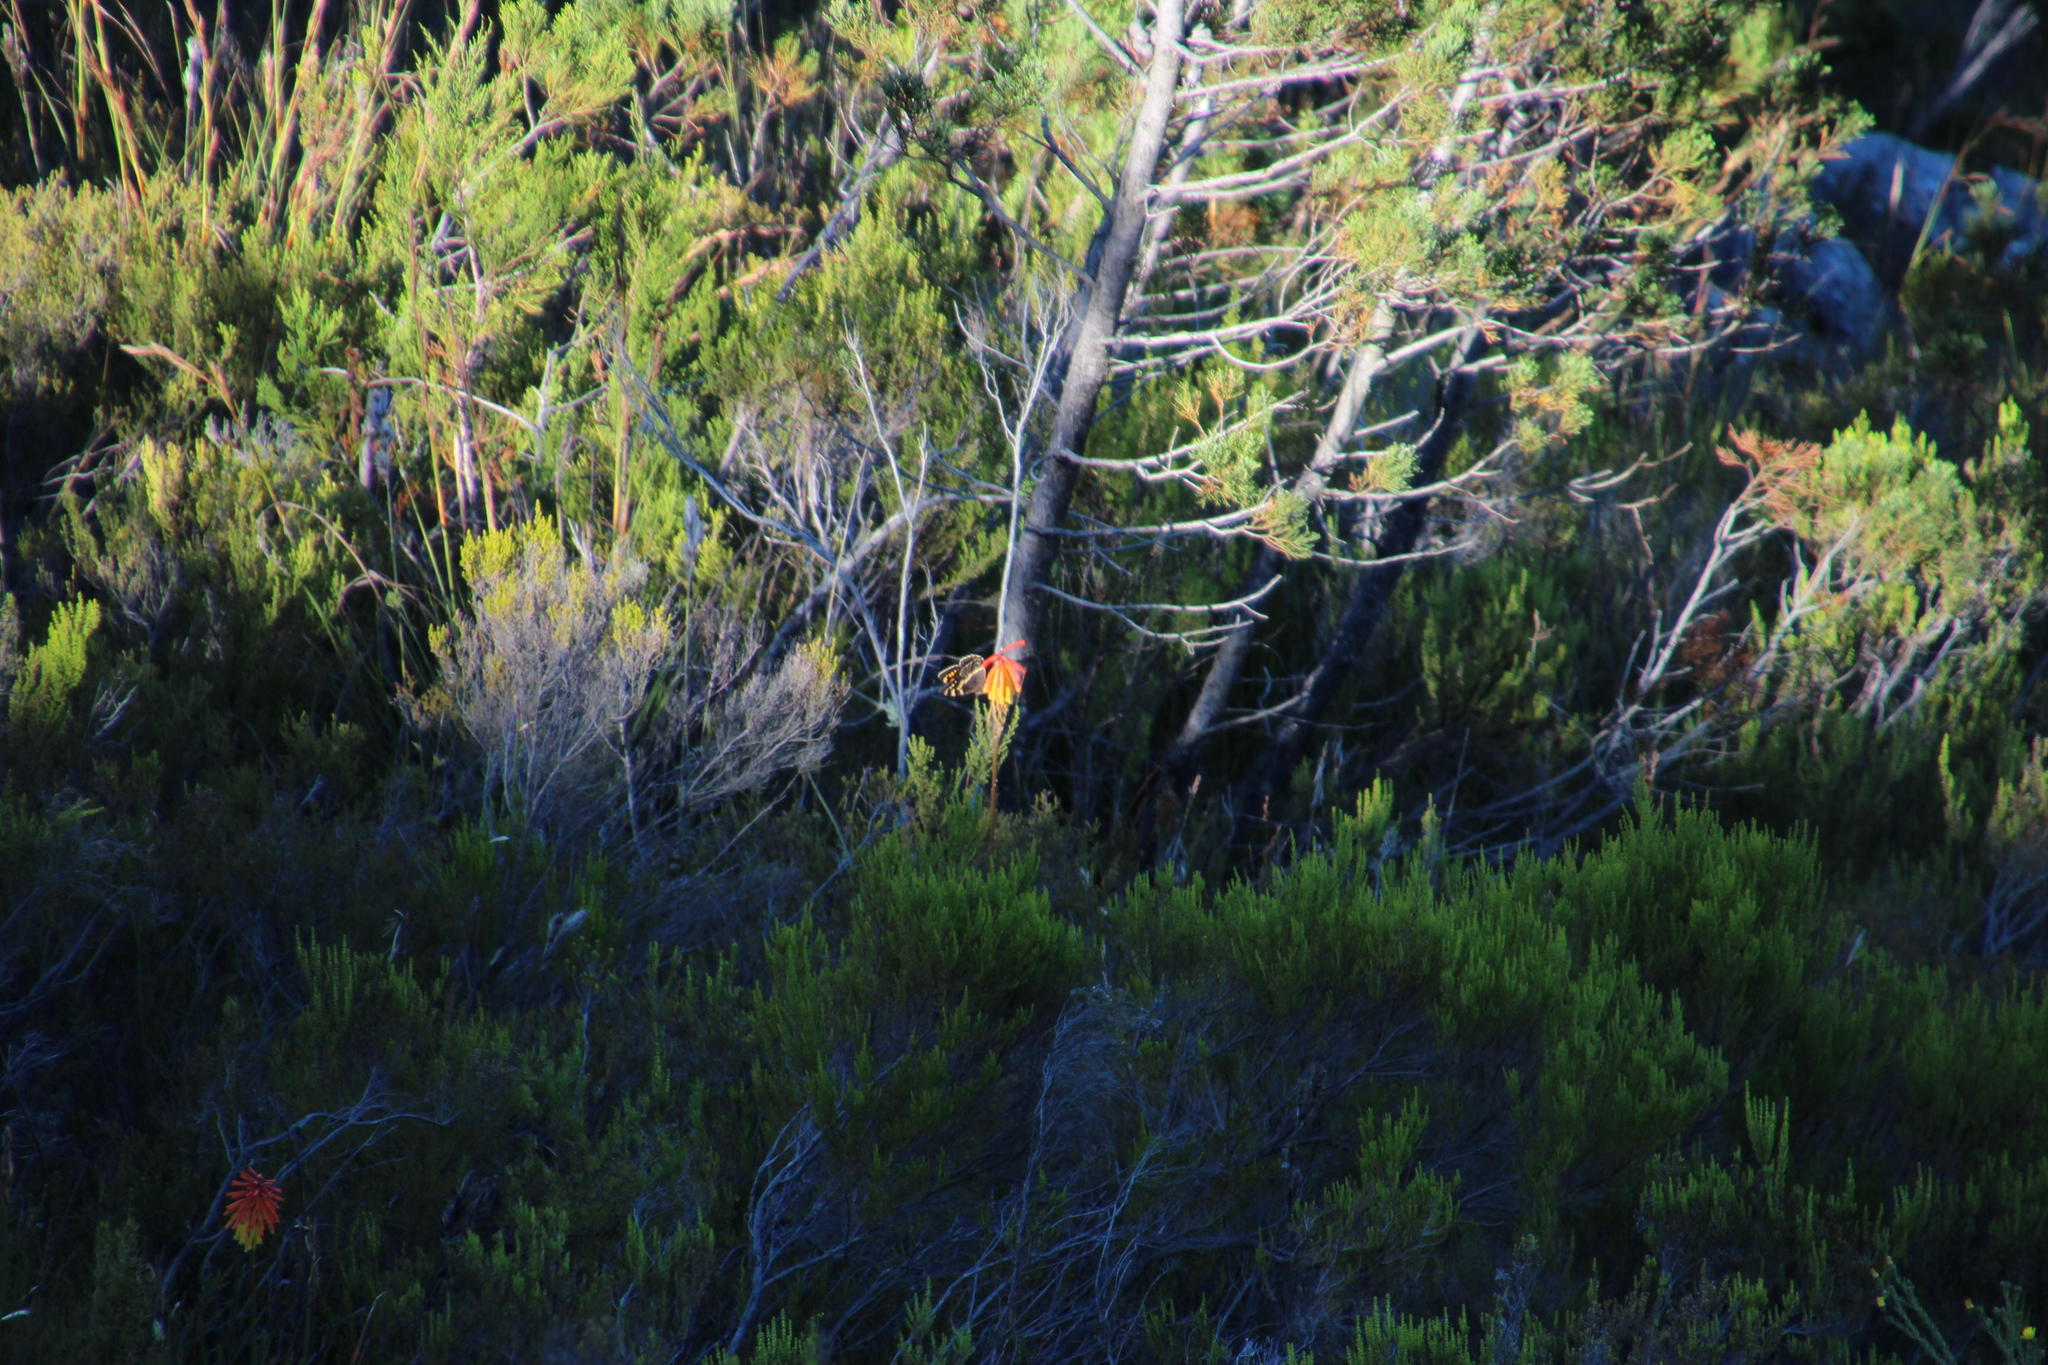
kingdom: Plantae
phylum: Tracheophyta
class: Liliopsida
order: Asparagales
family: Asphodelaceae
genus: Kniphofia
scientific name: Kniphofia uvaria
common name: Red-hot-poker
